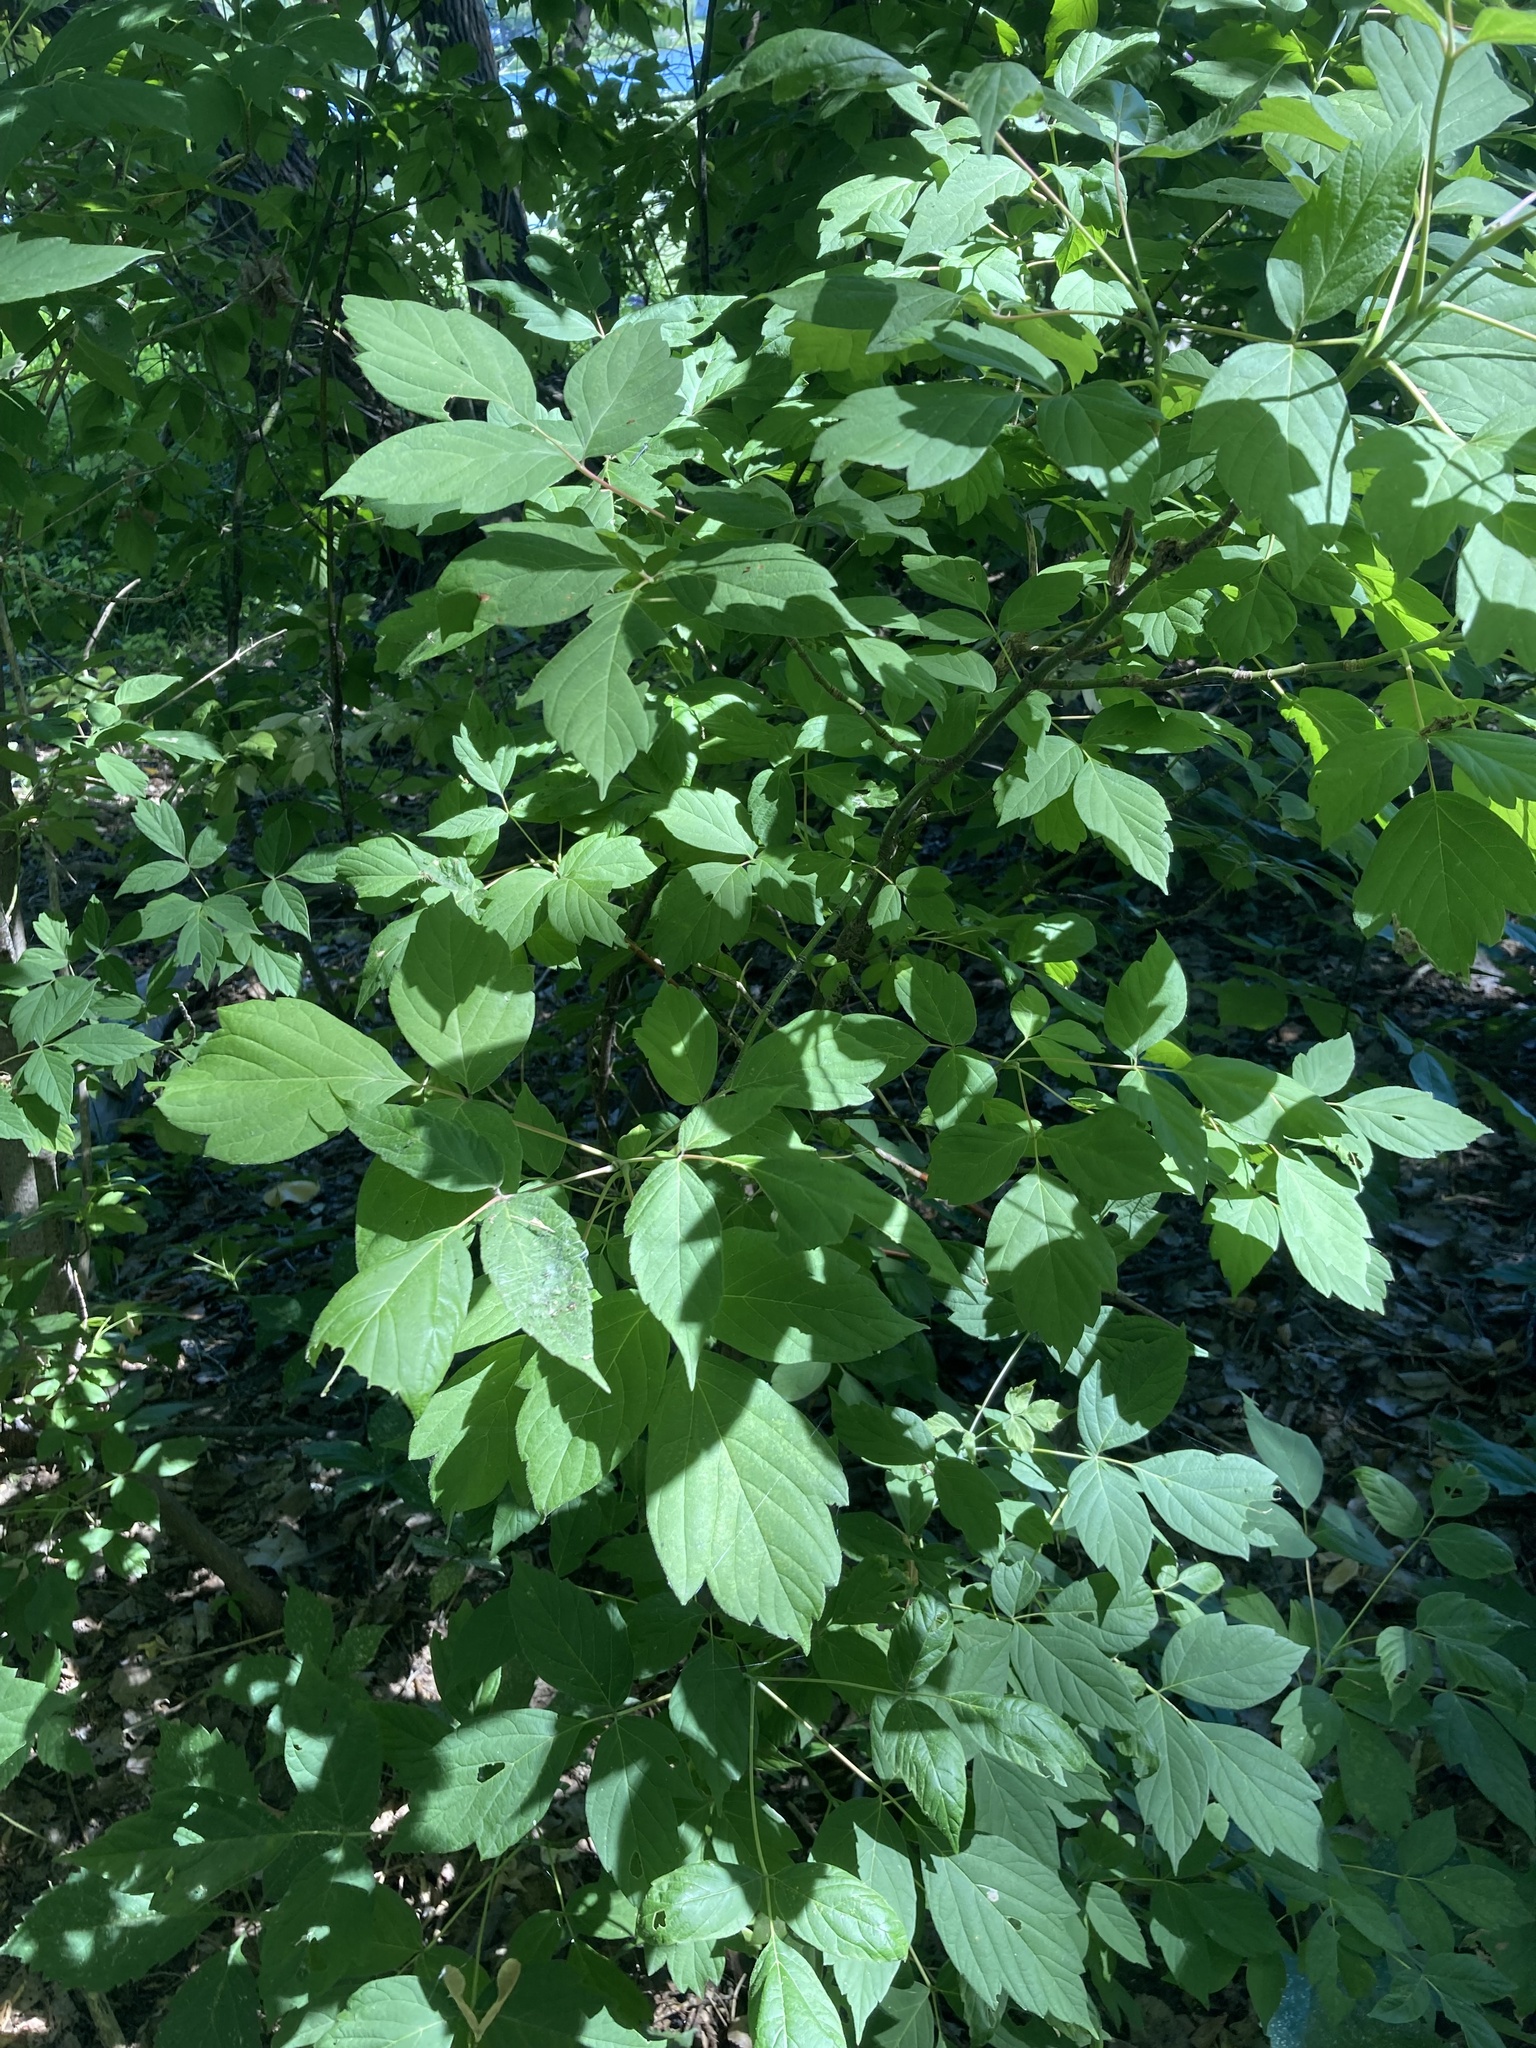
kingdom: Plantae
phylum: Tracheophyta
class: Magnoliopsida
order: Sapindales
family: Sapindaceae
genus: Acer
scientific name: Acer negundo
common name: Ashleaf maple
